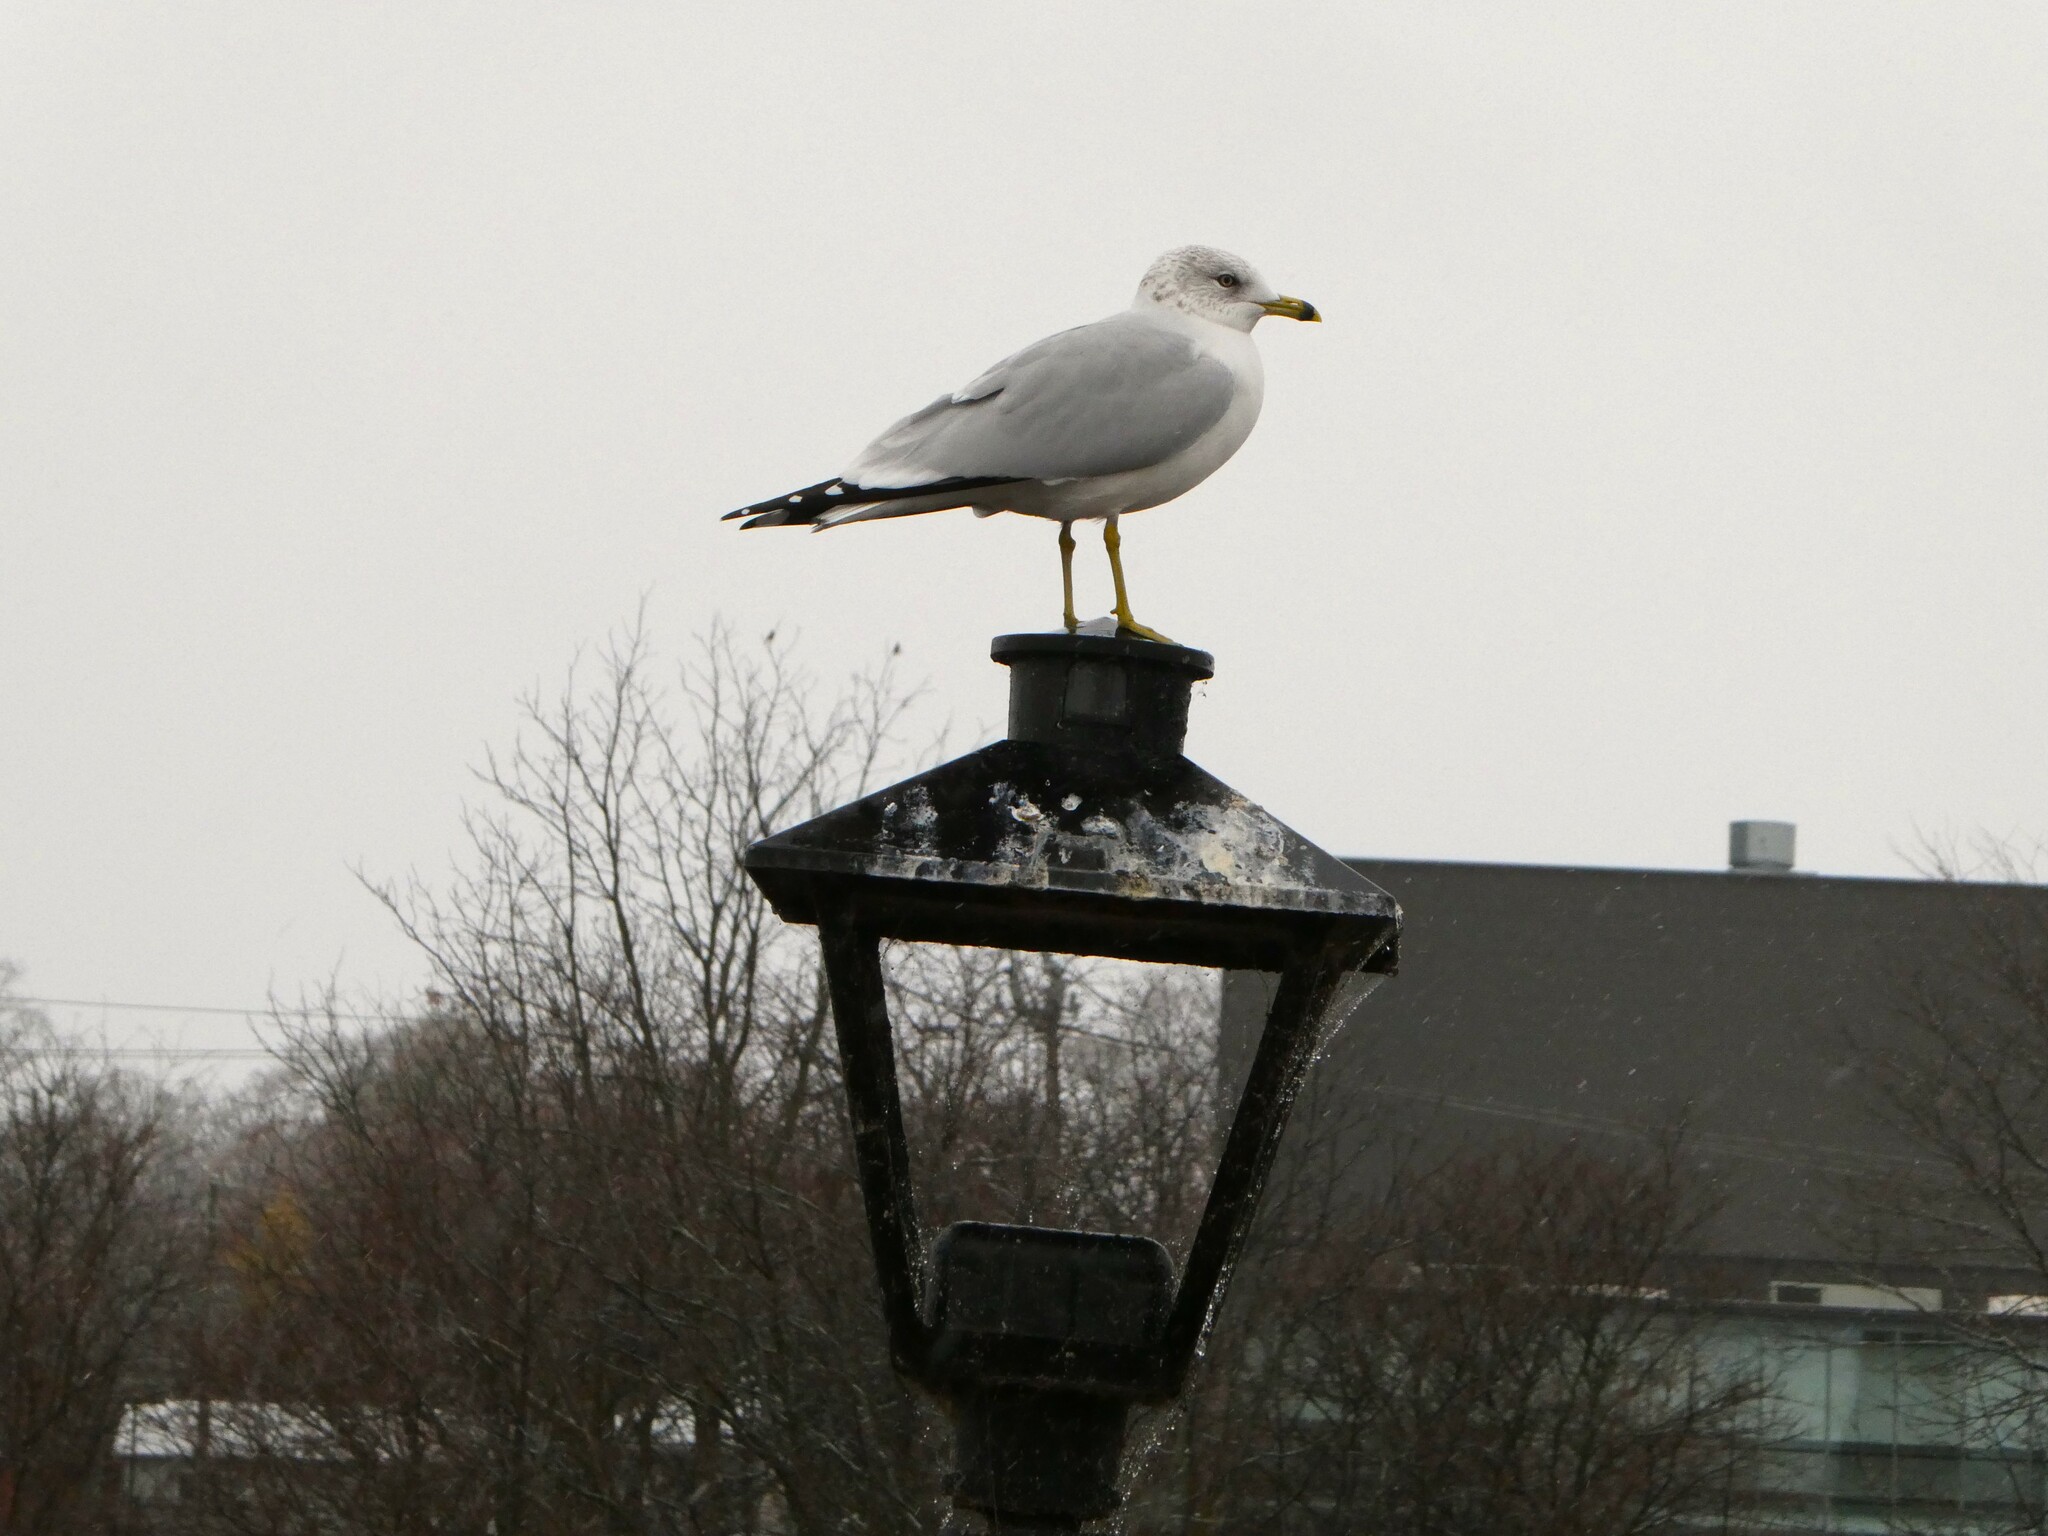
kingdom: Animalia
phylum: Chordata
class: Aves
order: Charadriiformes
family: Laridae
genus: Larus
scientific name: Larus delawarensis
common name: Ring-billed gull
